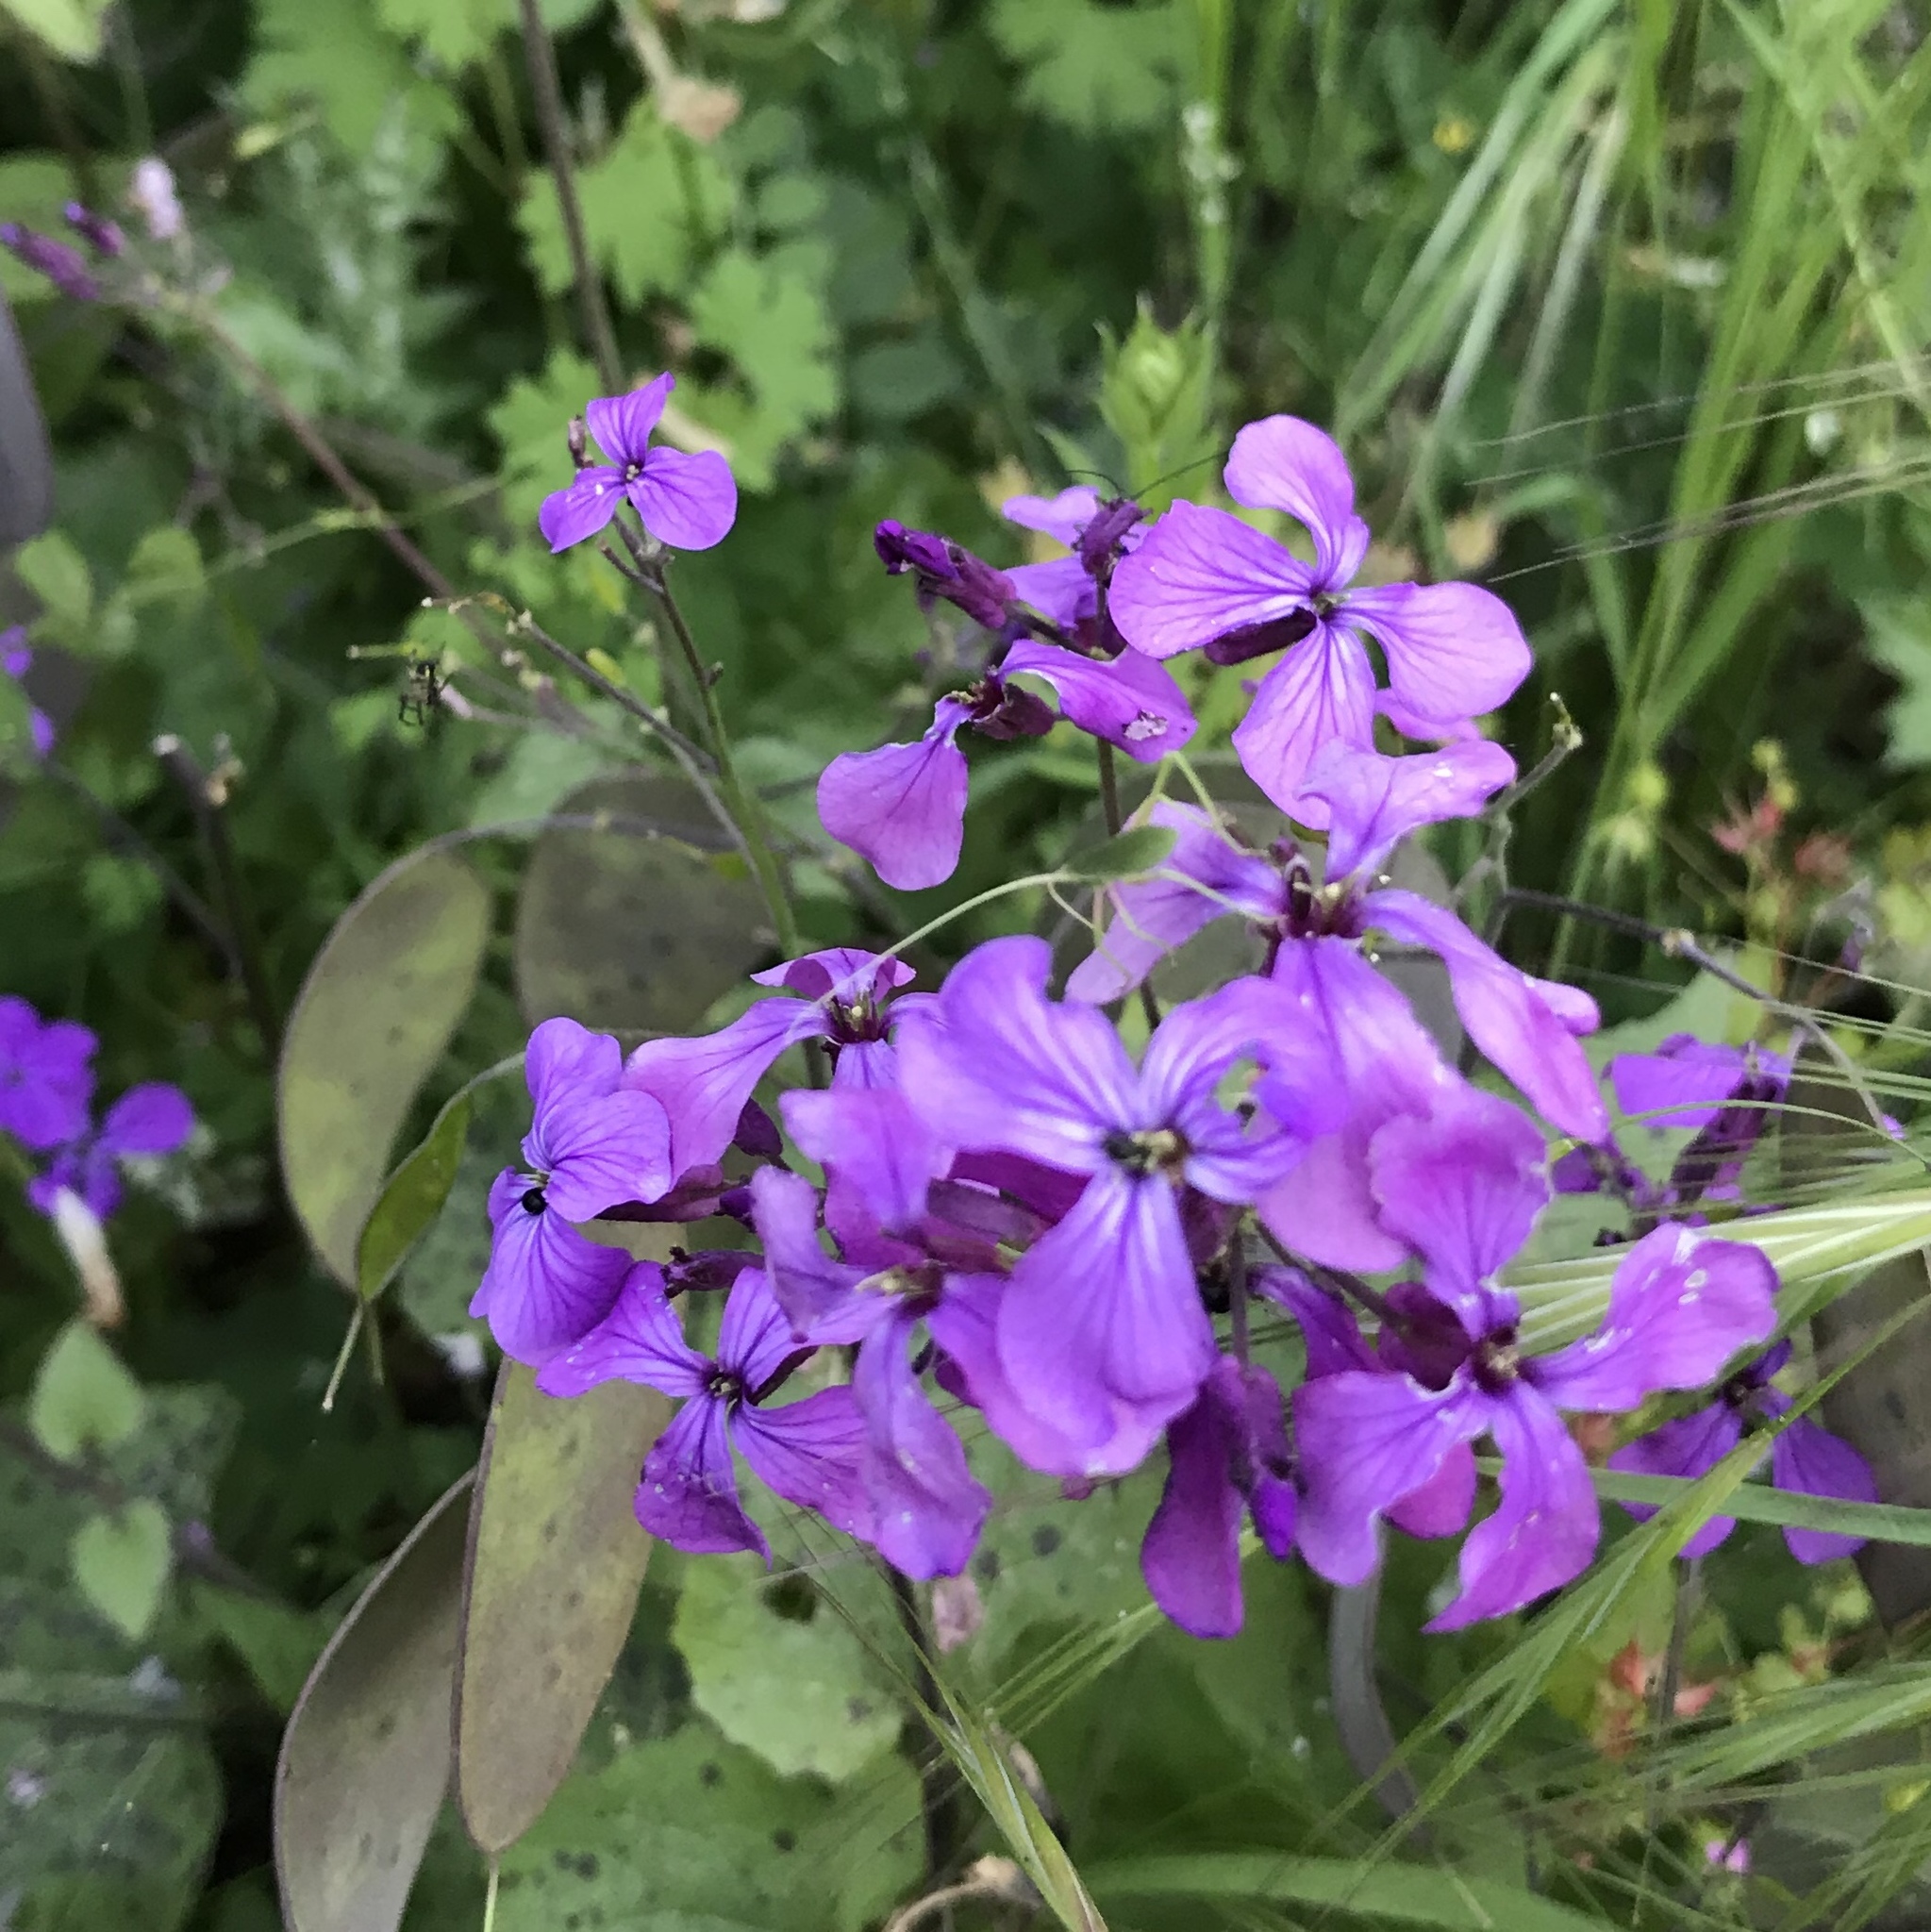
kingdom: Plantae
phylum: Tracheophyta
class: Magnoliopsida
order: Brassicales
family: Brassicaceae
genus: Lunaria
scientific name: Lunaria annua
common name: Honesty
